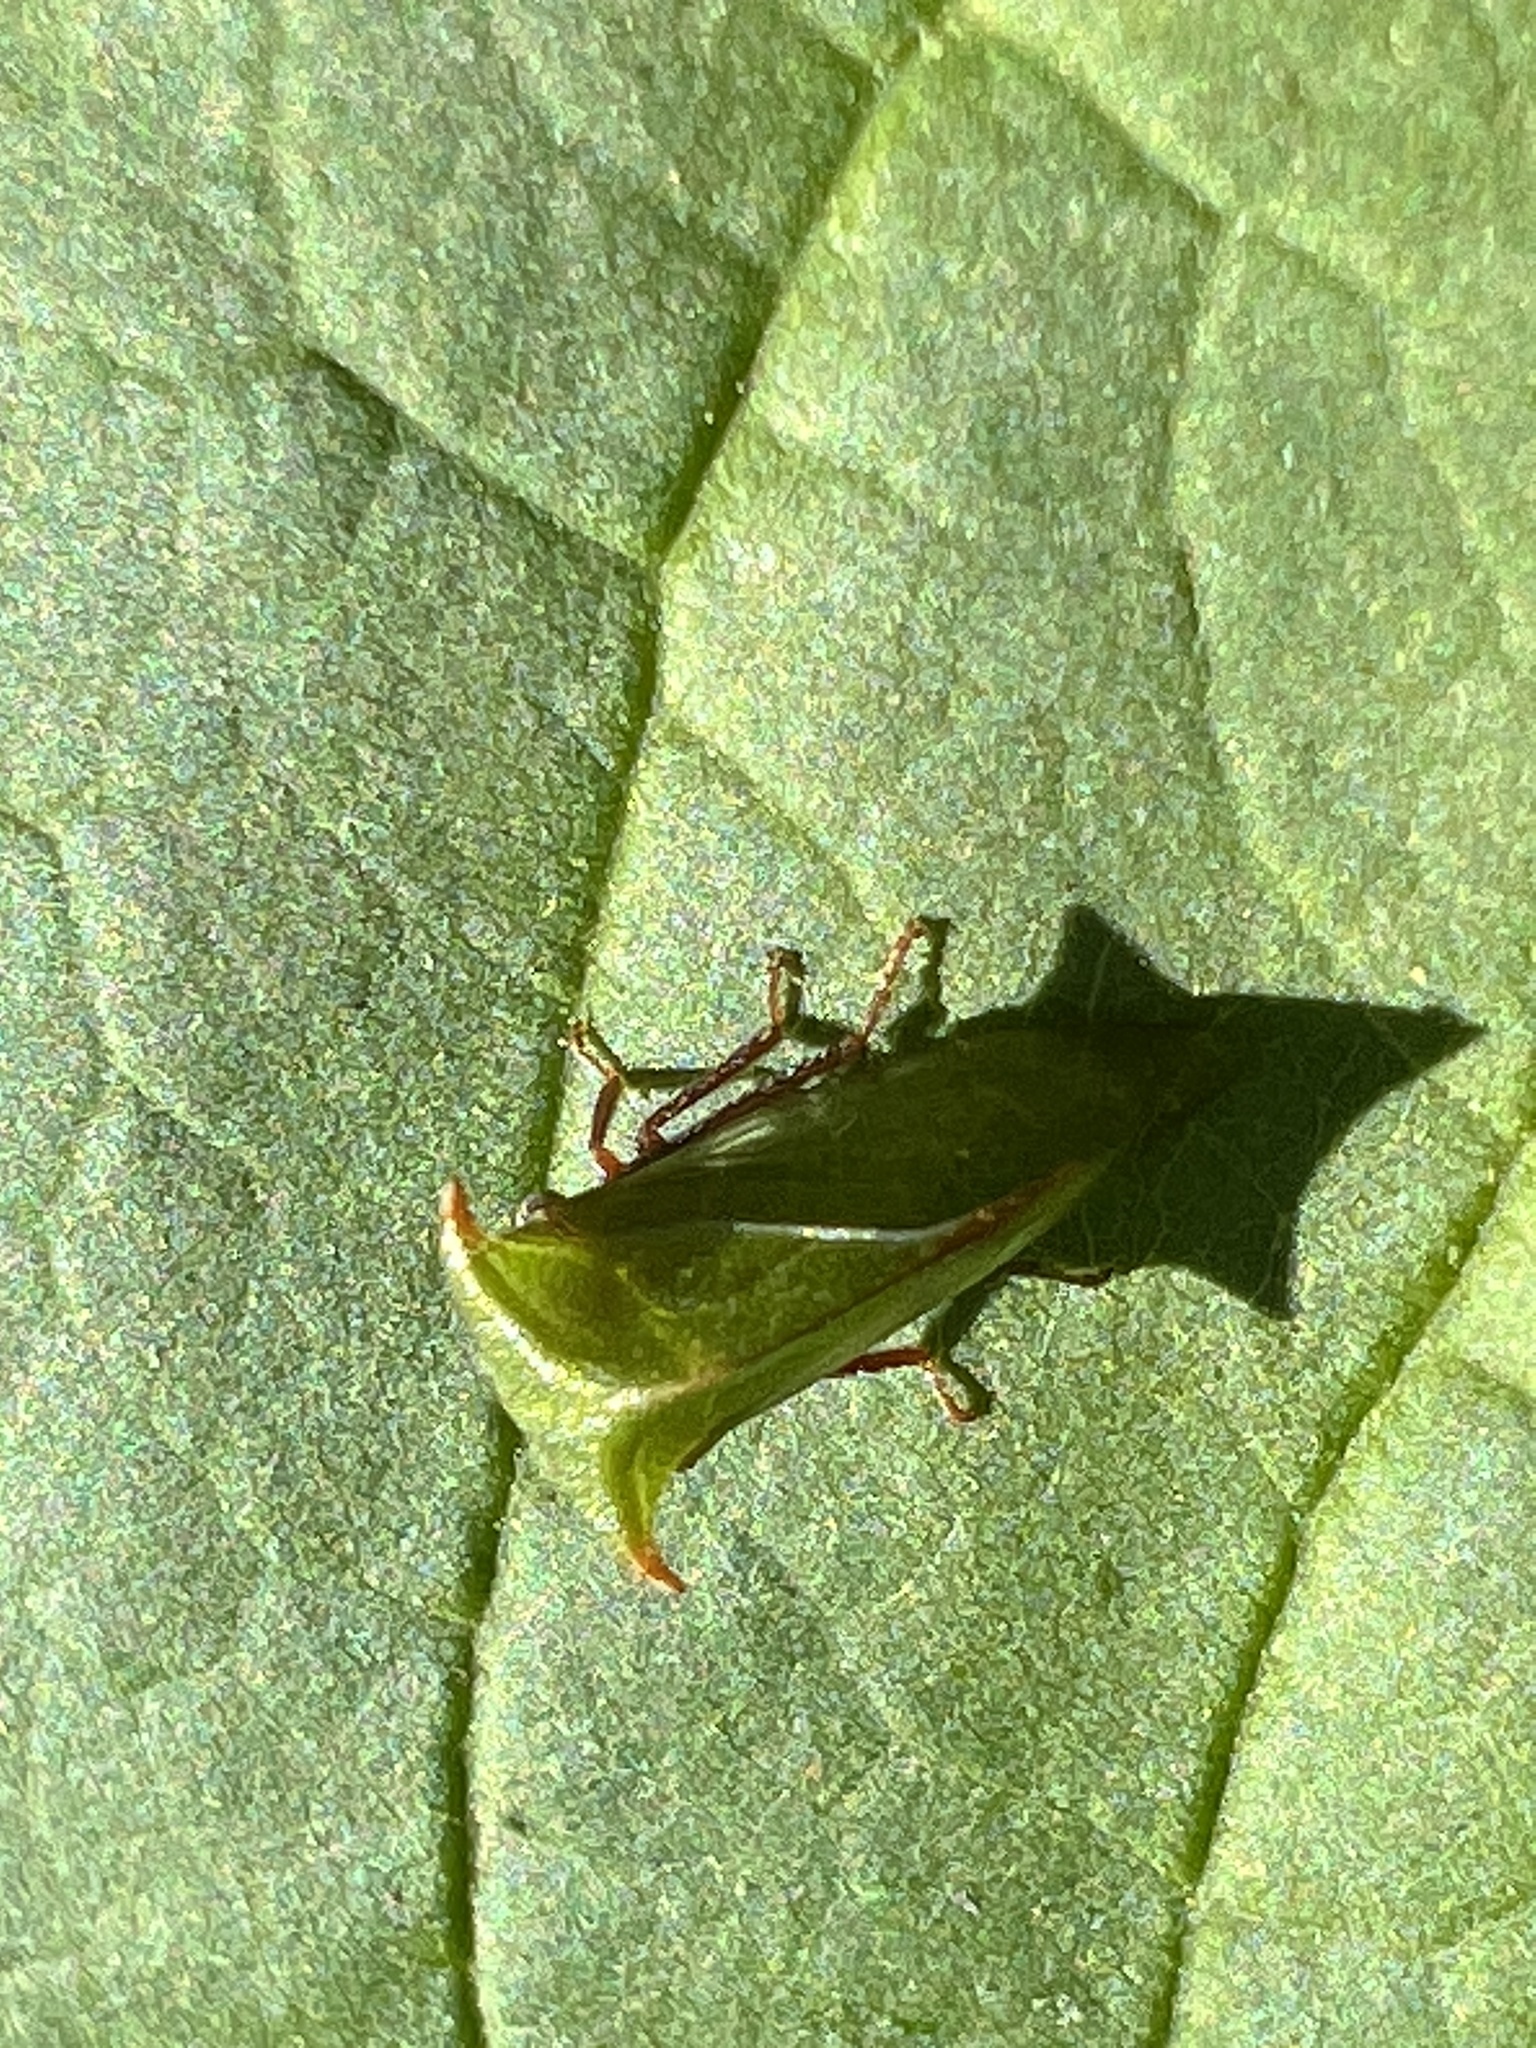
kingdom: Animalia
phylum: Arthropoda
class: Insecta
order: Hemiptera
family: Membracidae
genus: Stictocephala
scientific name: Stictocephala brevitylus
